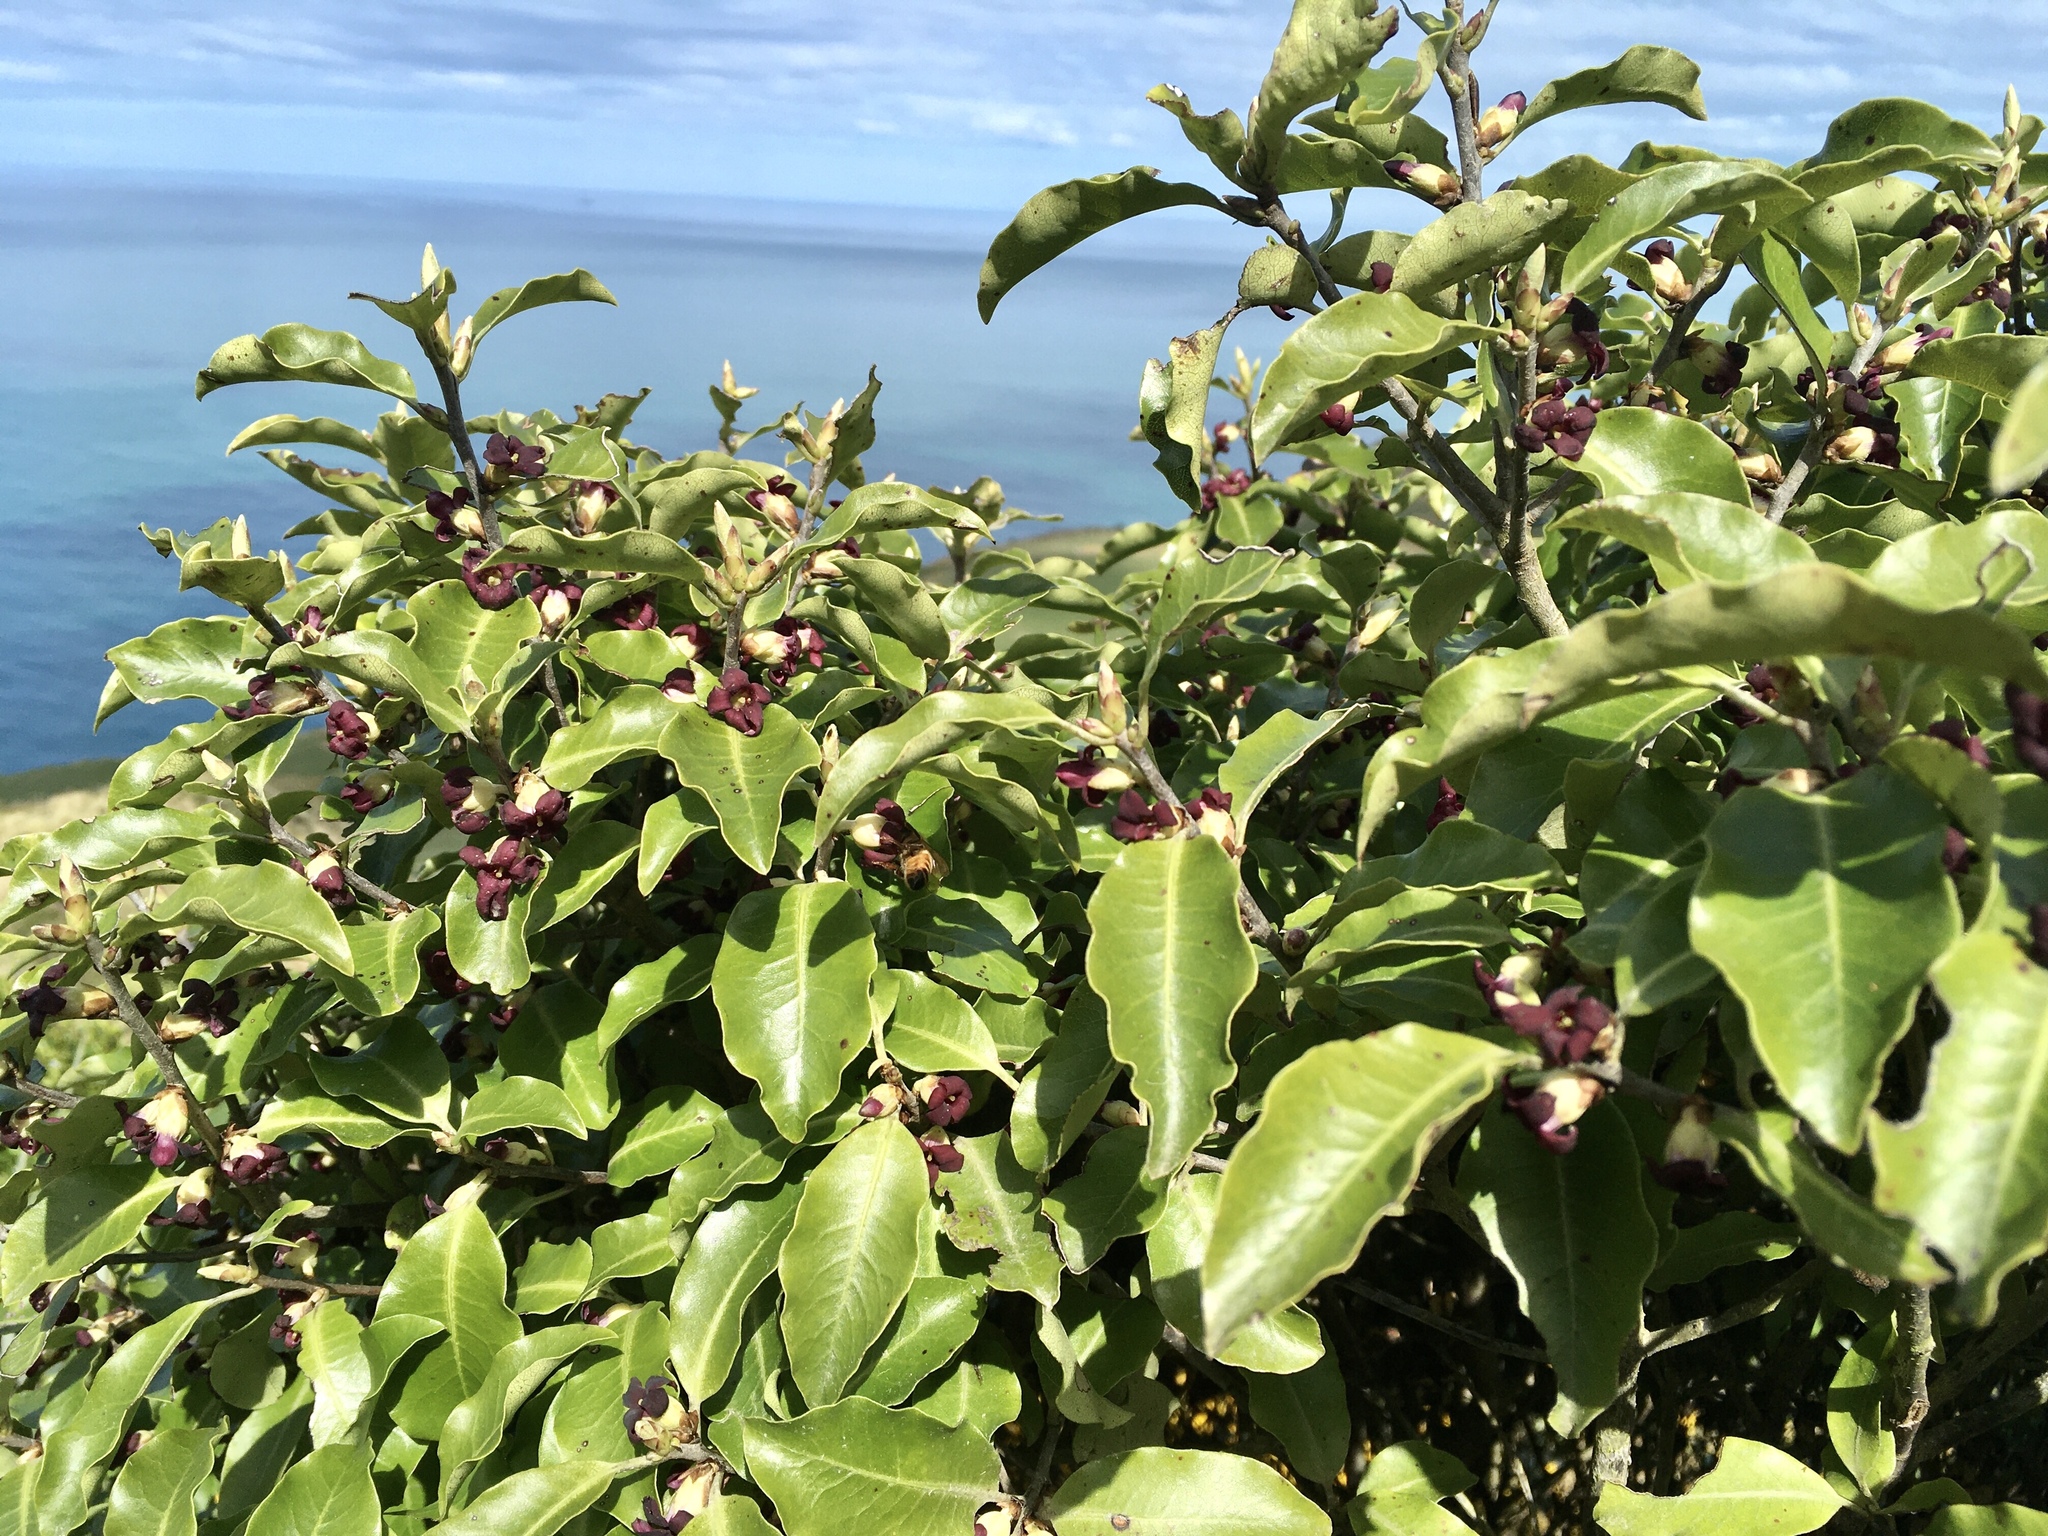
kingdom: Plantae
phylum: Tracheophyta
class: Magnoliopsida
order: Apiales
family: Pittosporaceae
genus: Pittosporum
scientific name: Pittosporum tenuifolium
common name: Kohuhu
